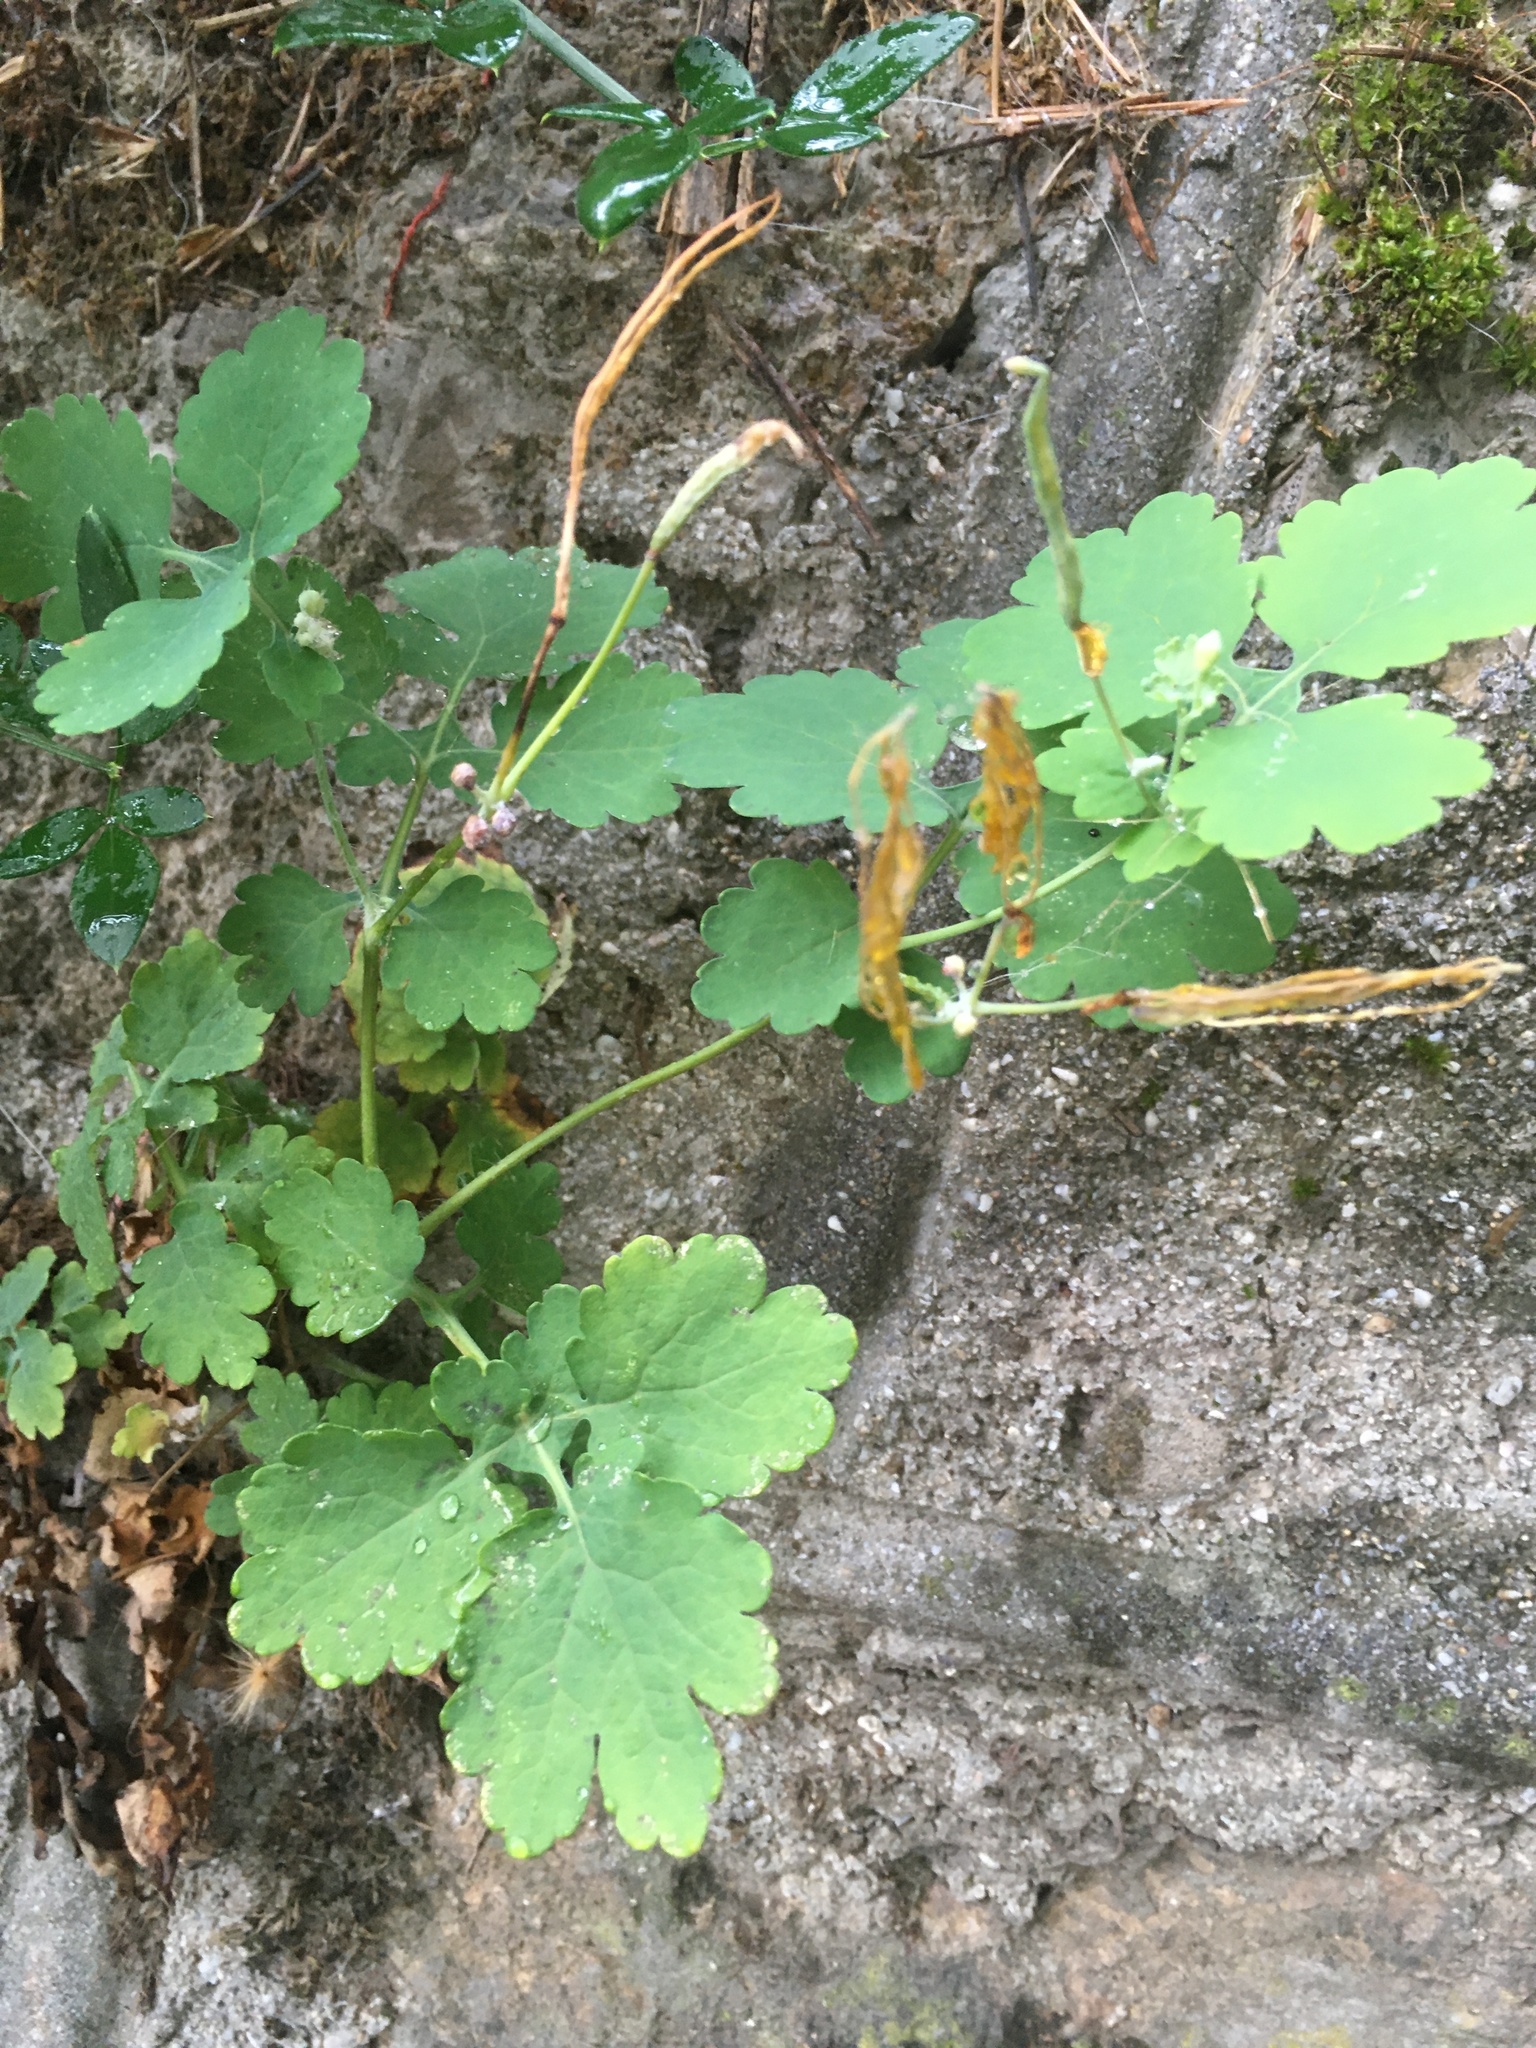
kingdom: Plantae
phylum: Tracheophyta
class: Magnoliopsida
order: Ranunculales
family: Papaveraceae
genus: Chelidonium
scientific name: Chelidonium majus
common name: Greater celandine
